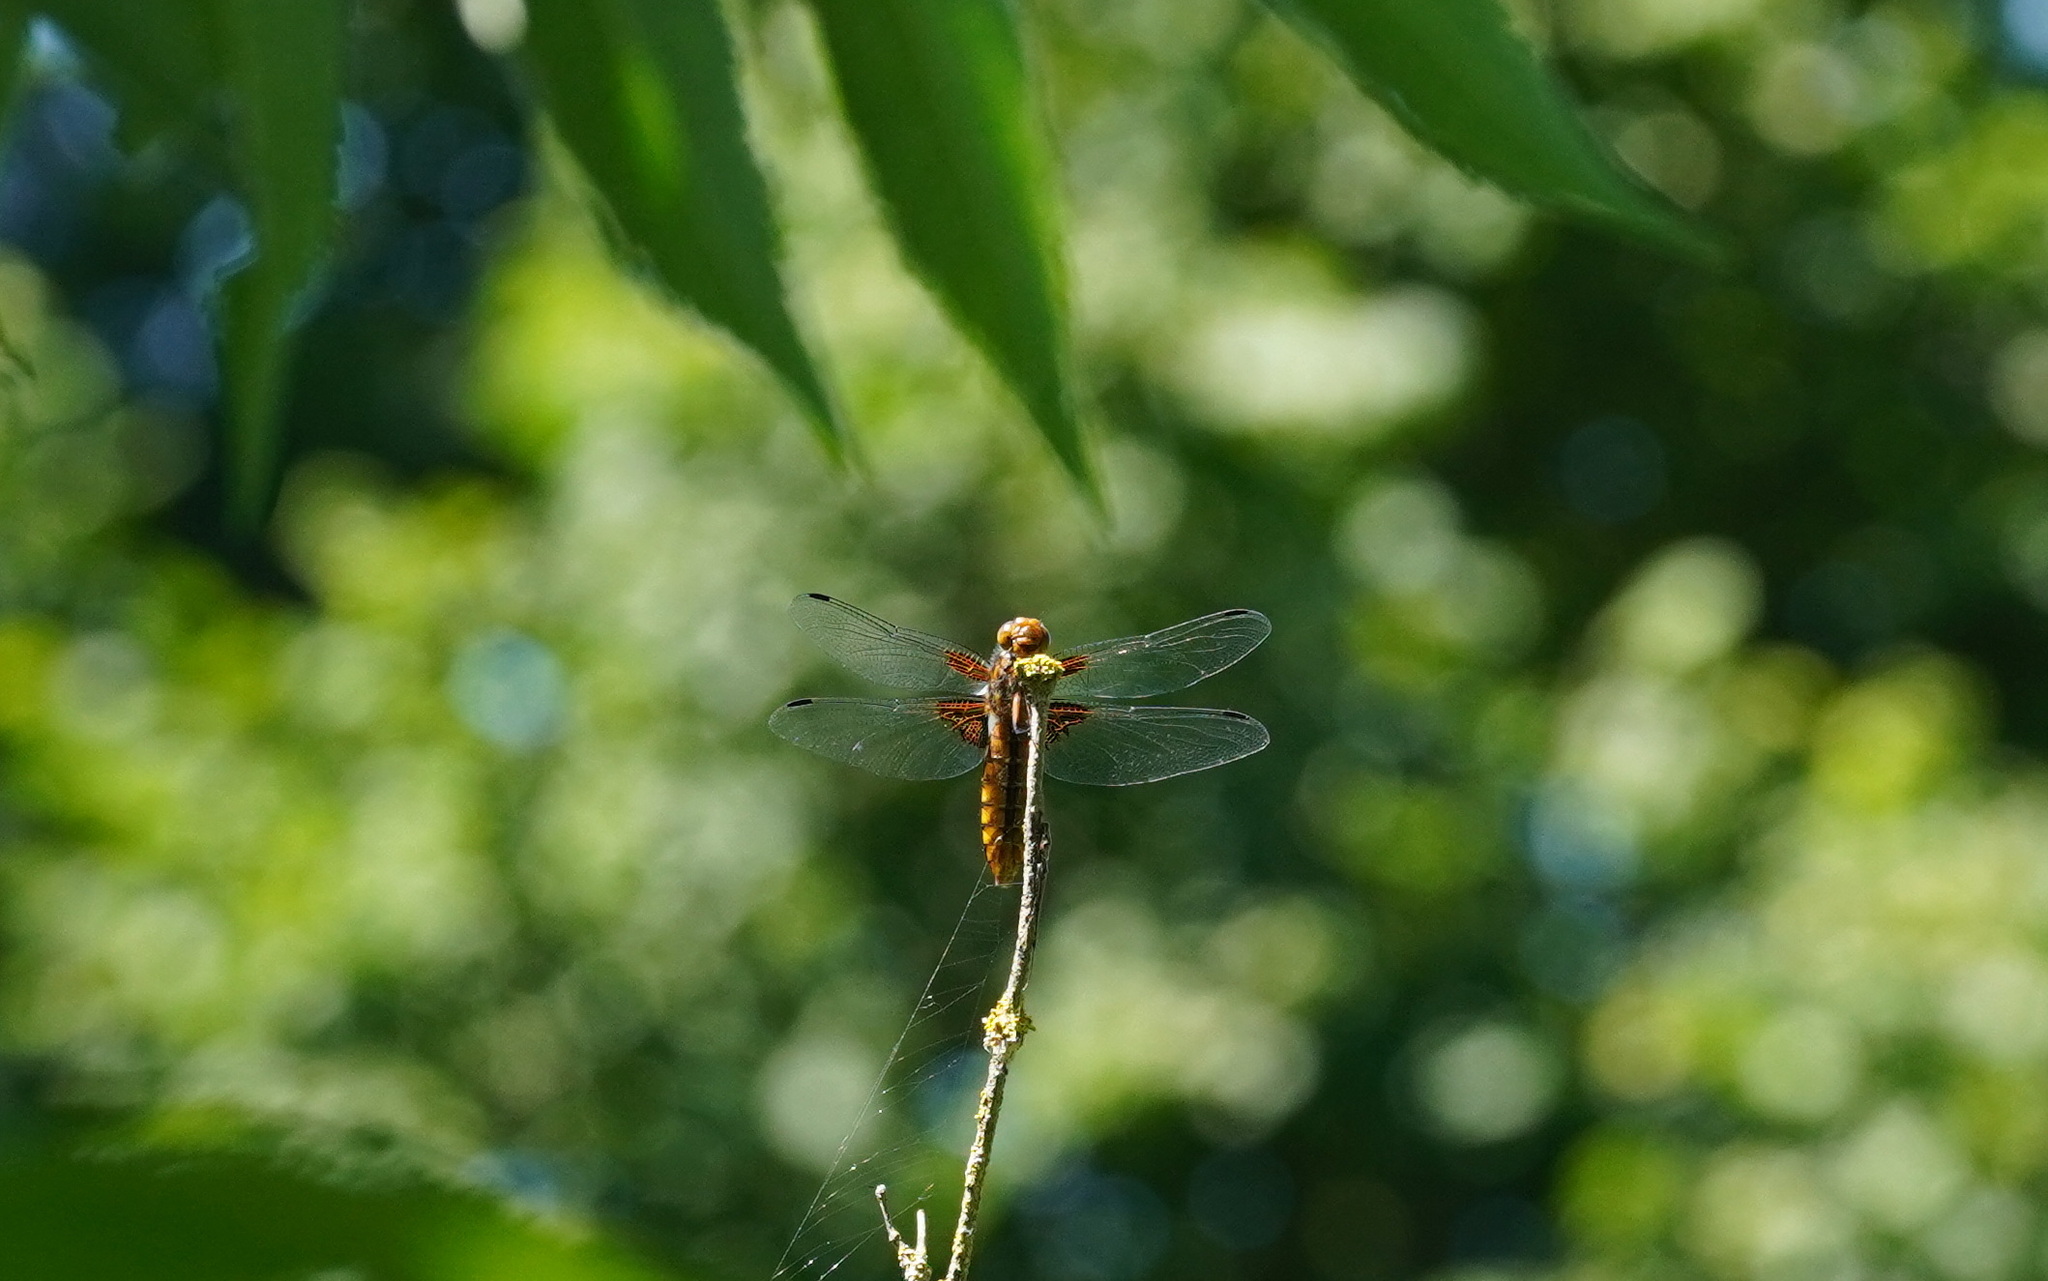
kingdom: Animalia
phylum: Arthropoda
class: Insecta
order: Odonata
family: Libellulidae
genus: Libellula
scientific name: Libellula depressa
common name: Broad-bodied chaser
